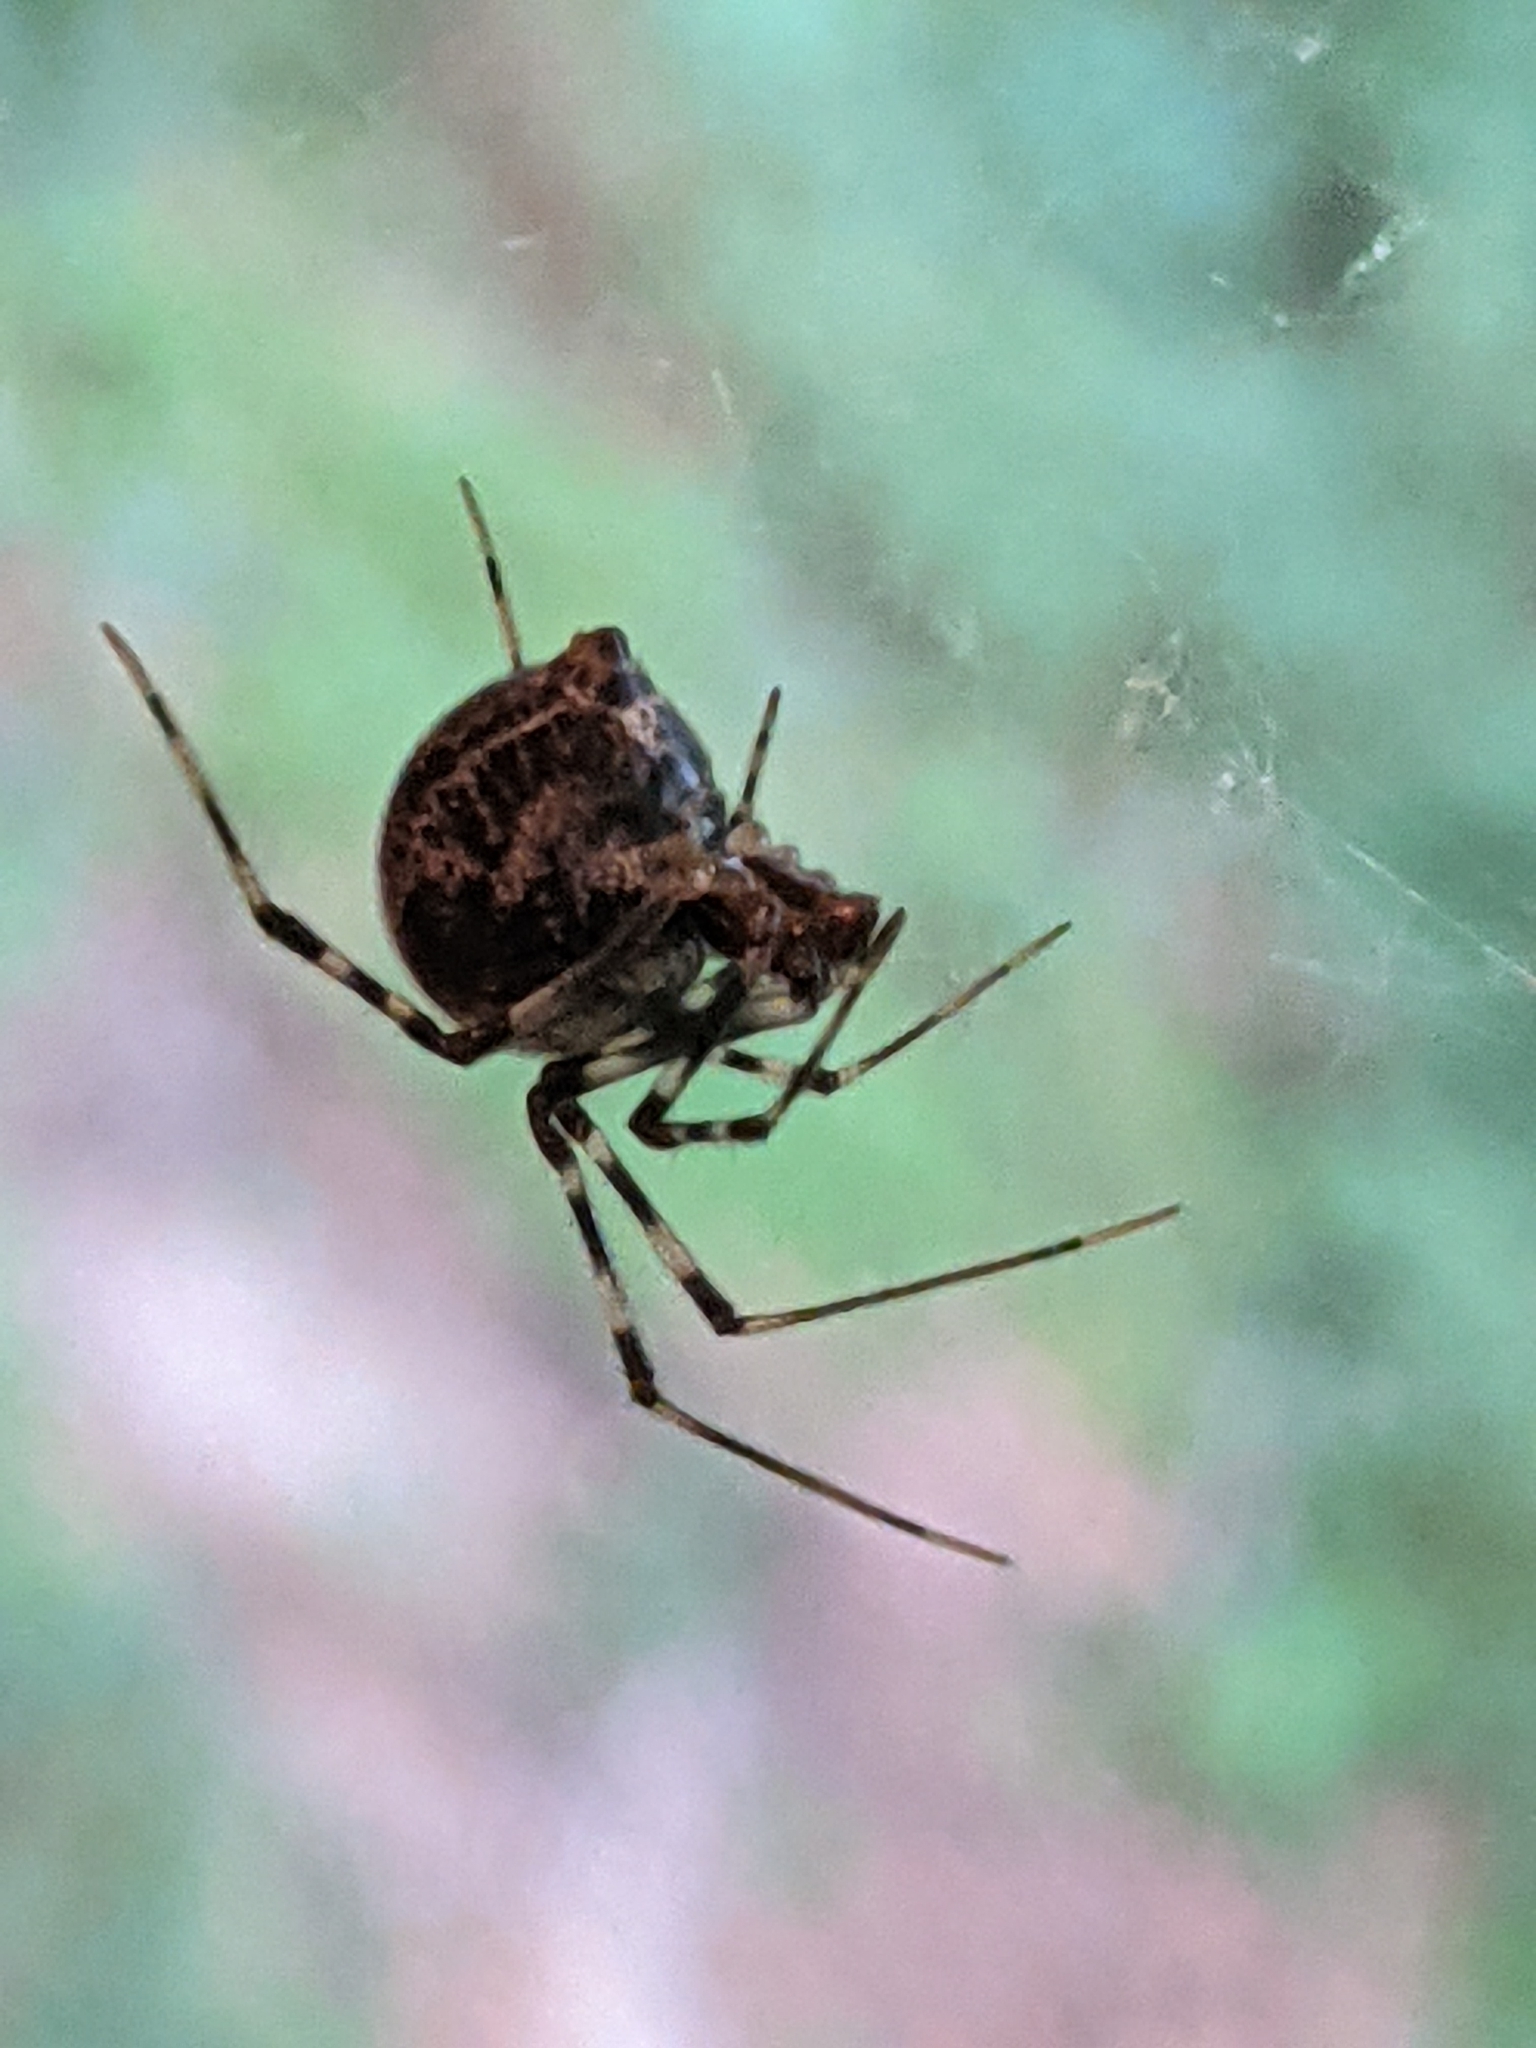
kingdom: Animalia
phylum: Arthropoda
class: Arachnida
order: Araneae
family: Theridiidae
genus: Parasteatoda
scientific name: Parasteatoda tepidariorum
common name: Common house spider
